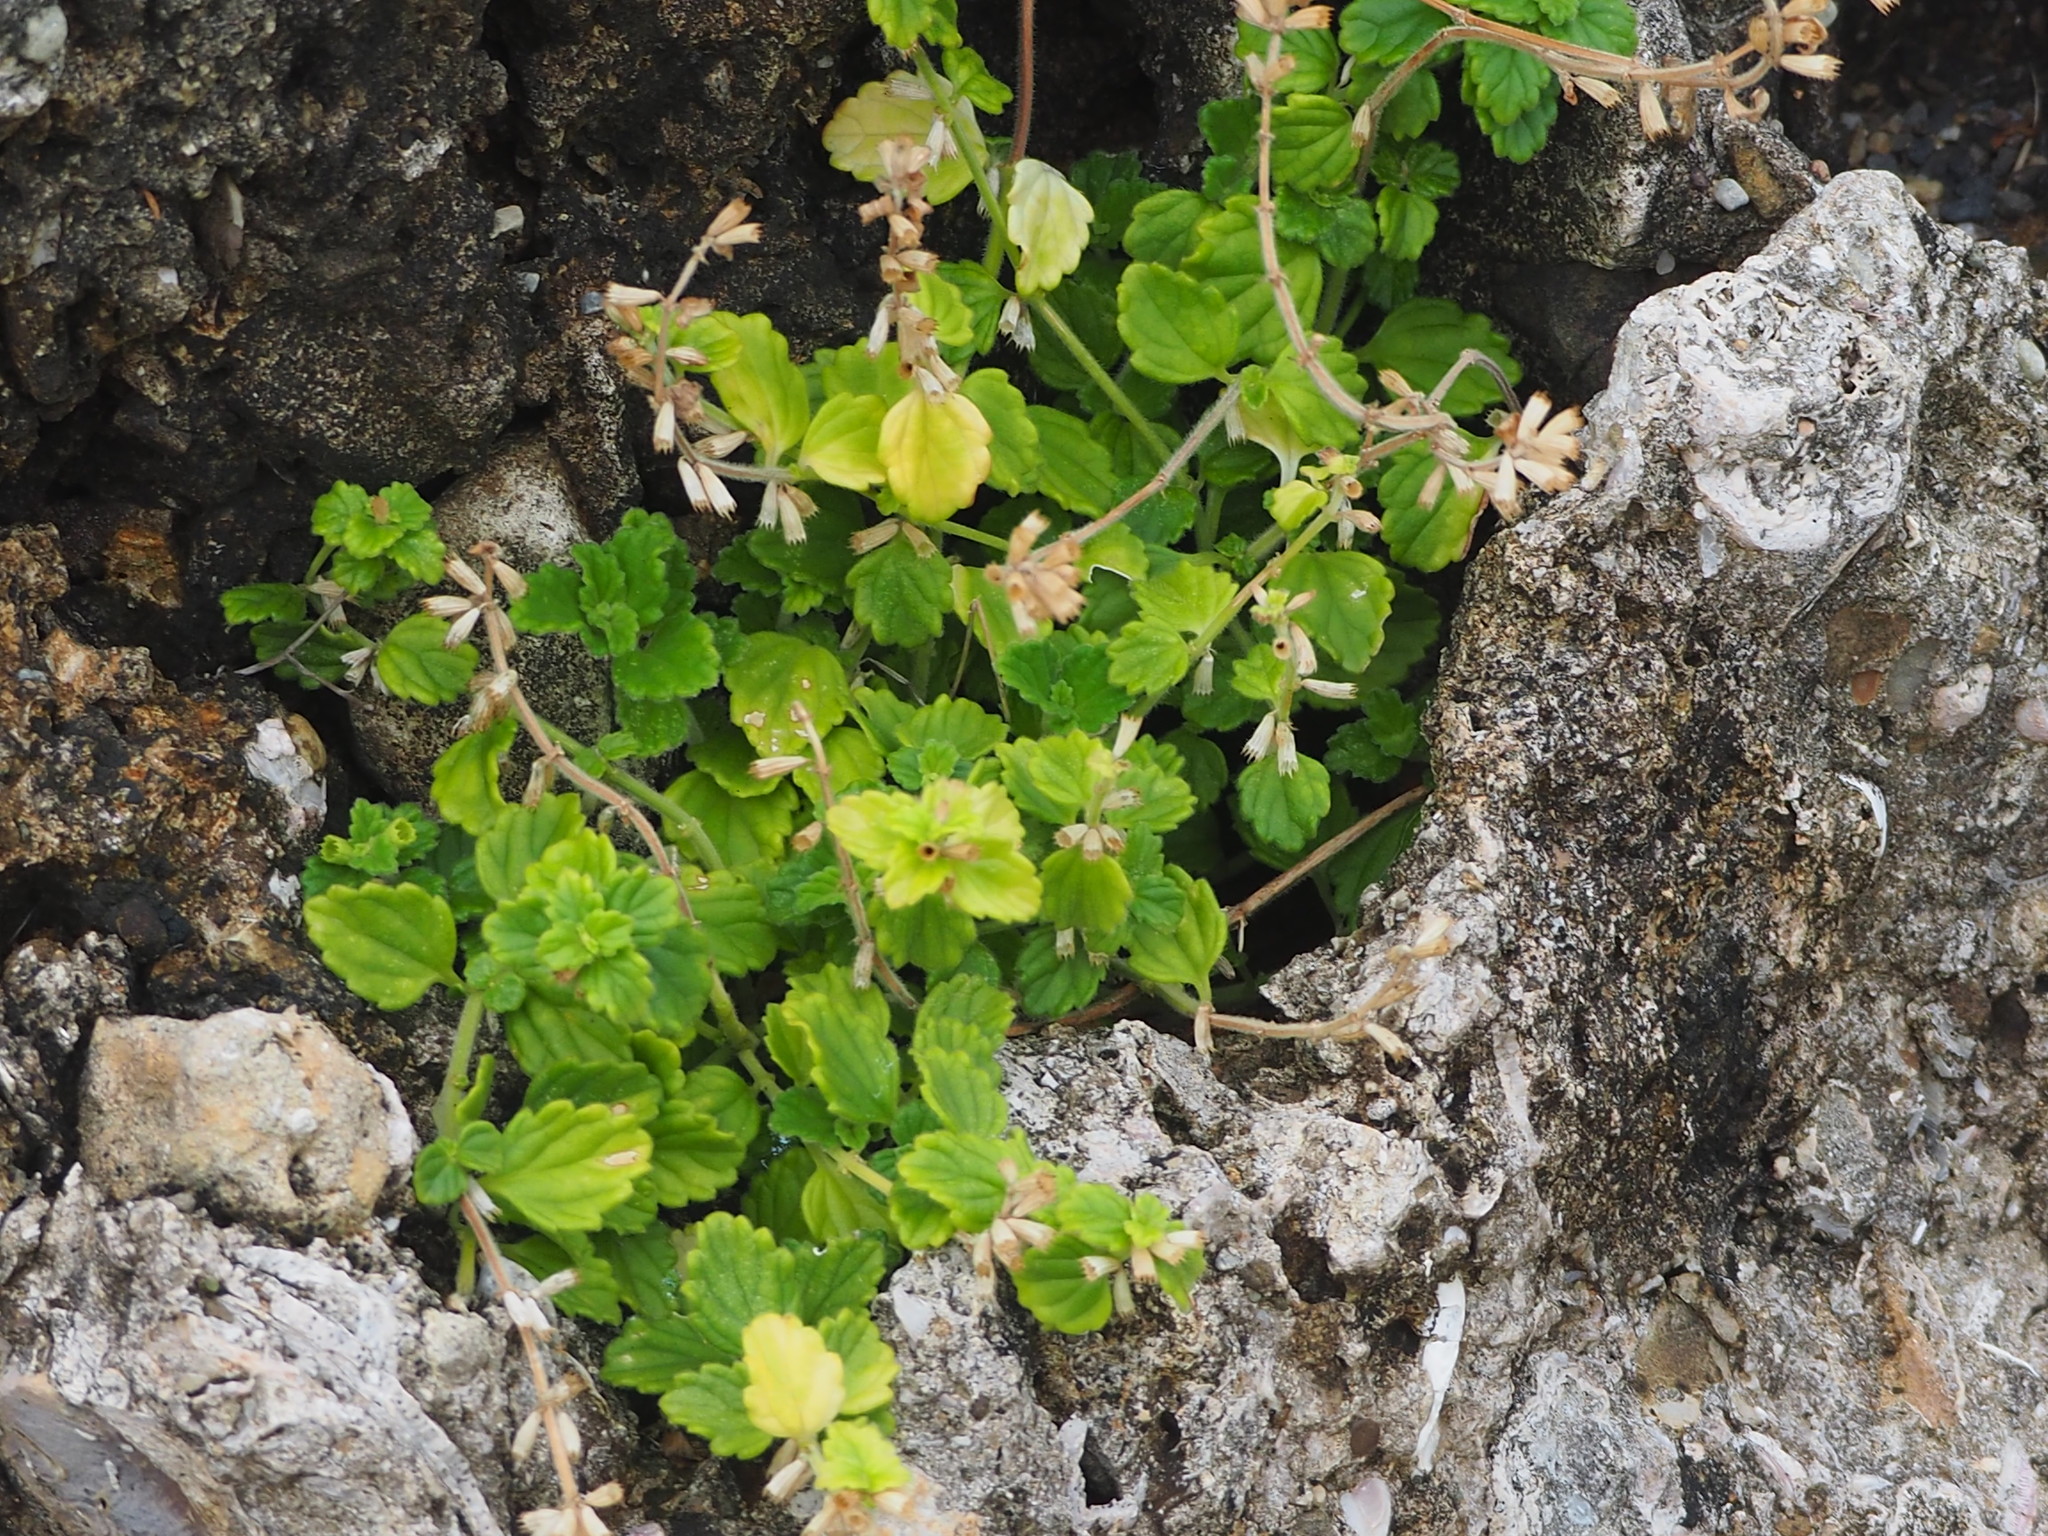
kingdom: Plantae
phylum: Tracheophyta
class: Magnoliopsida
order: Lamiales
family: Lamiaceae
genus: Leucas
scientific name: Leucas chinensis
